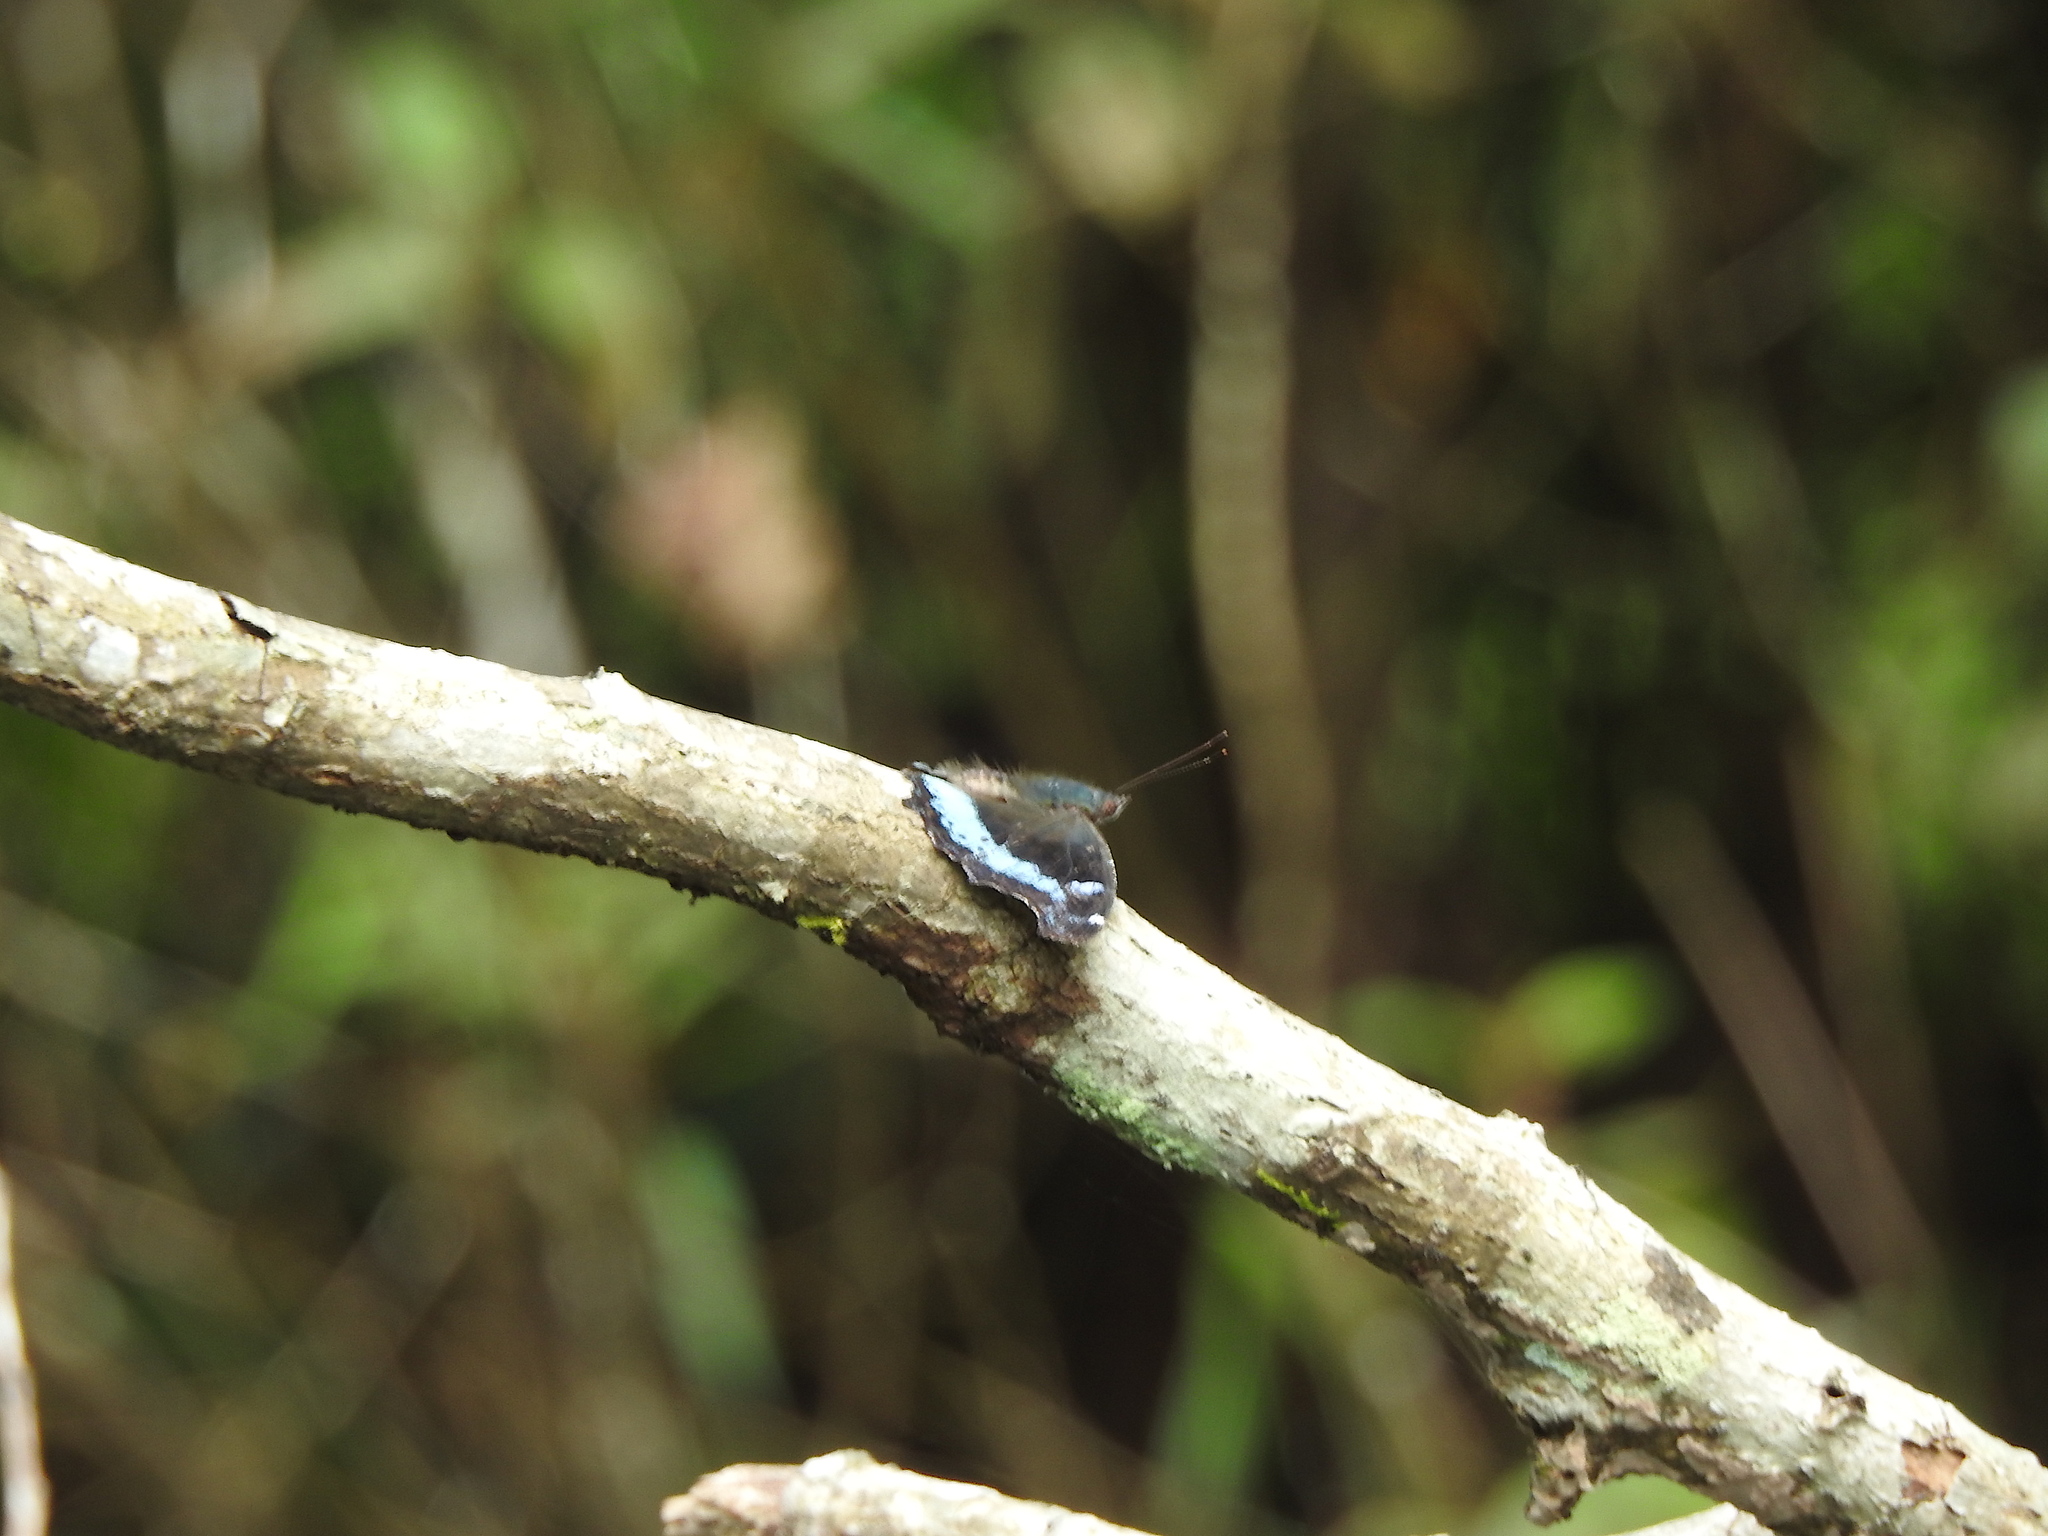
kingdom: Animalia
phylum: Arthropoda
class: Insecta
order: Lepidoptera
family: Nymphalidae
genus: Vanessa
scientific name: Vanessa Kaniska canace
